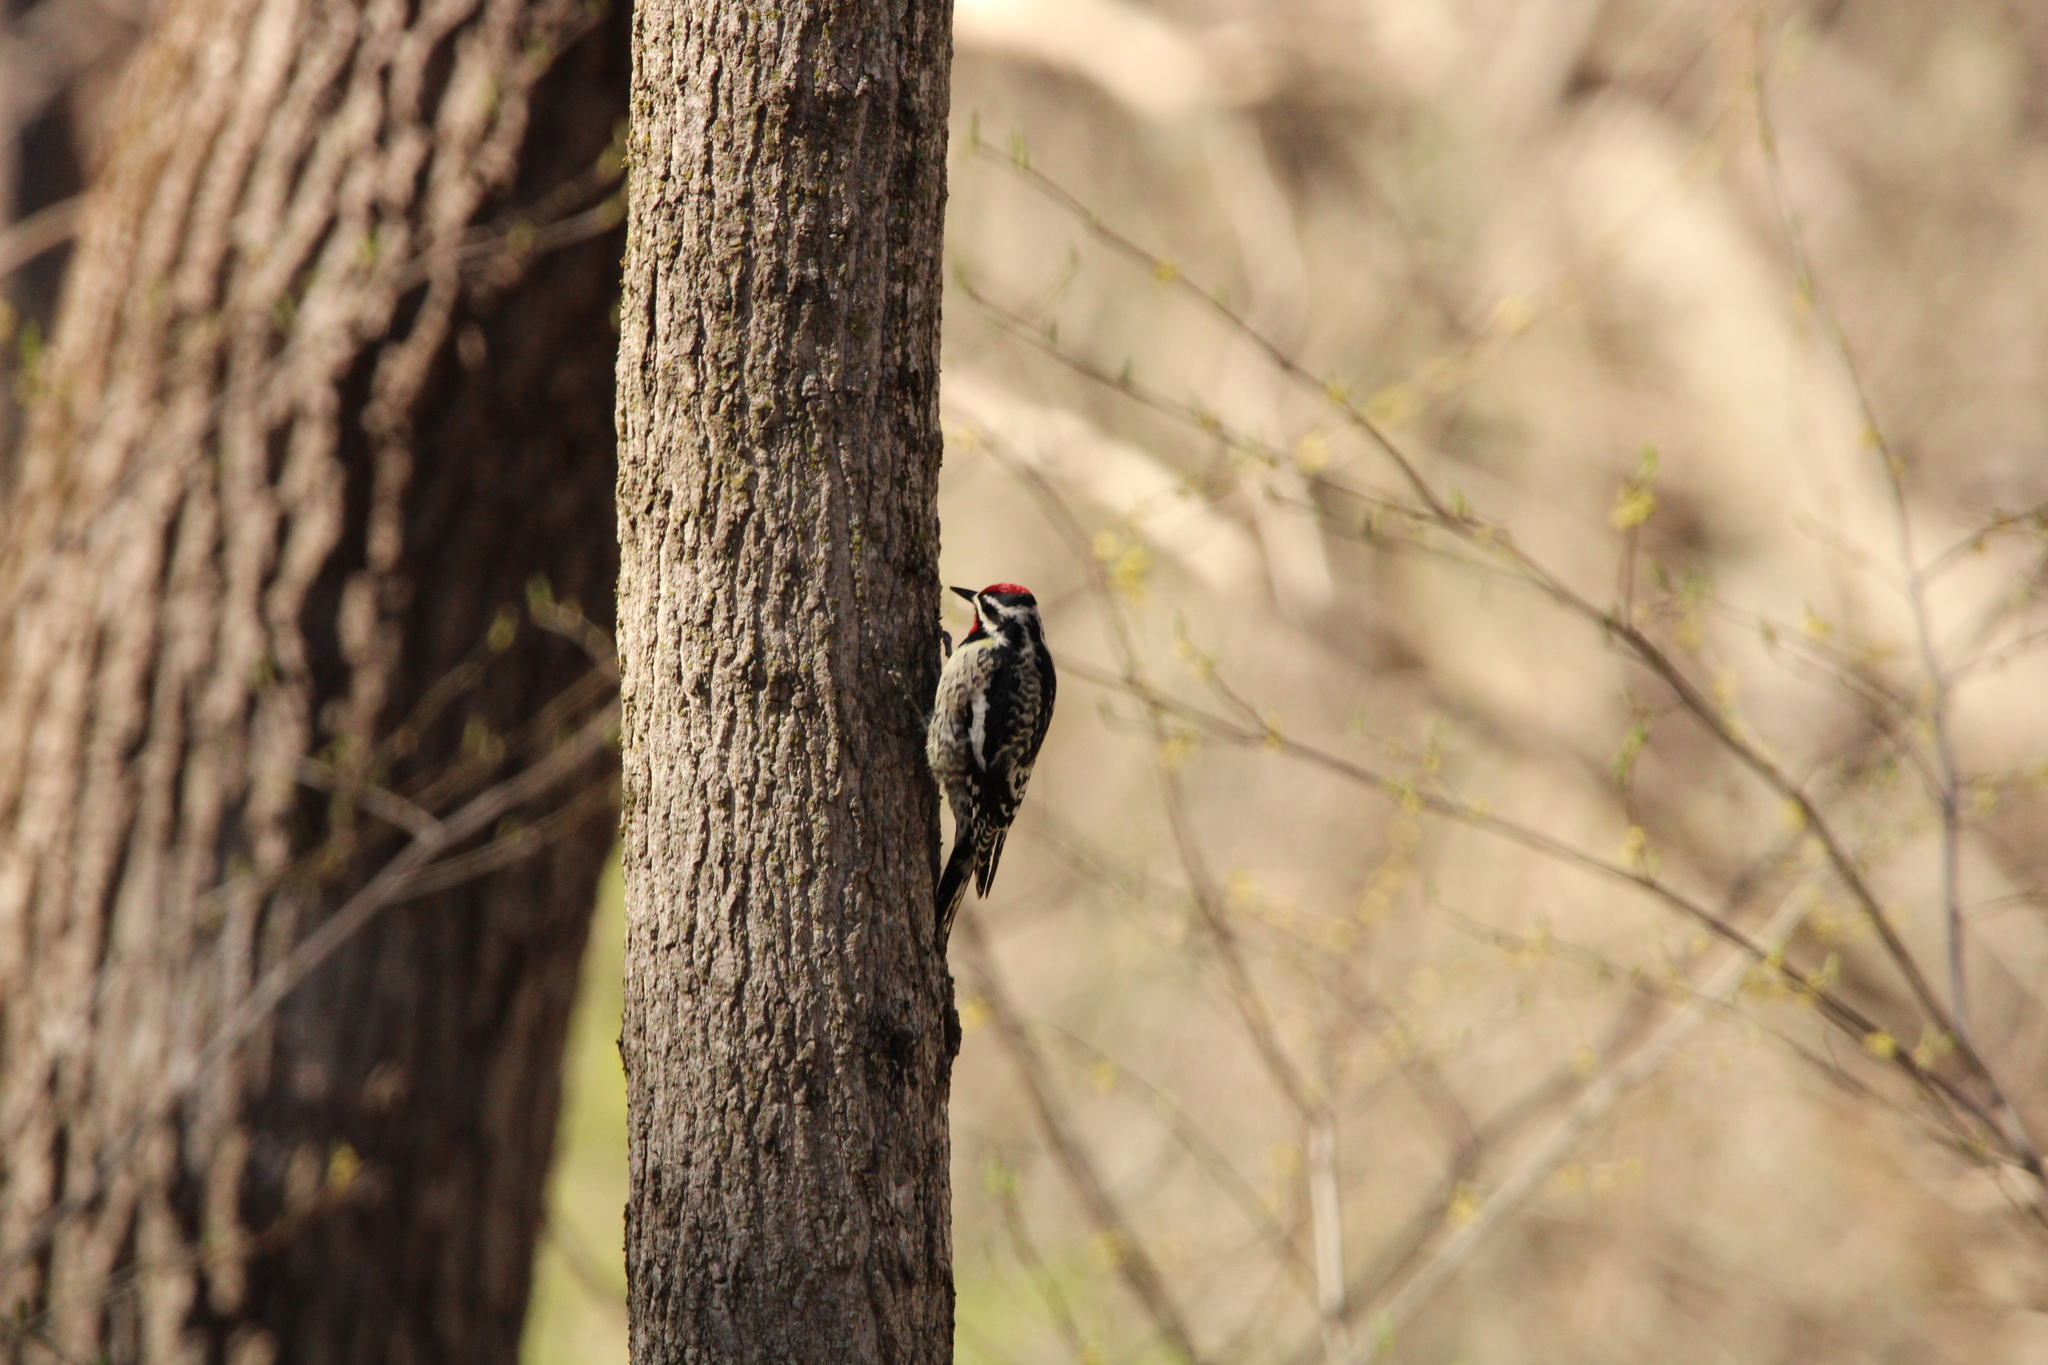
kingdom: Animalia
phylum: Chordata
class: Aves
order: Piciformes
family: Picidae
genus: Sphyrapicus
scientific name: Sphyrapicus varius
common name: Yellow-bellied sapsucker
